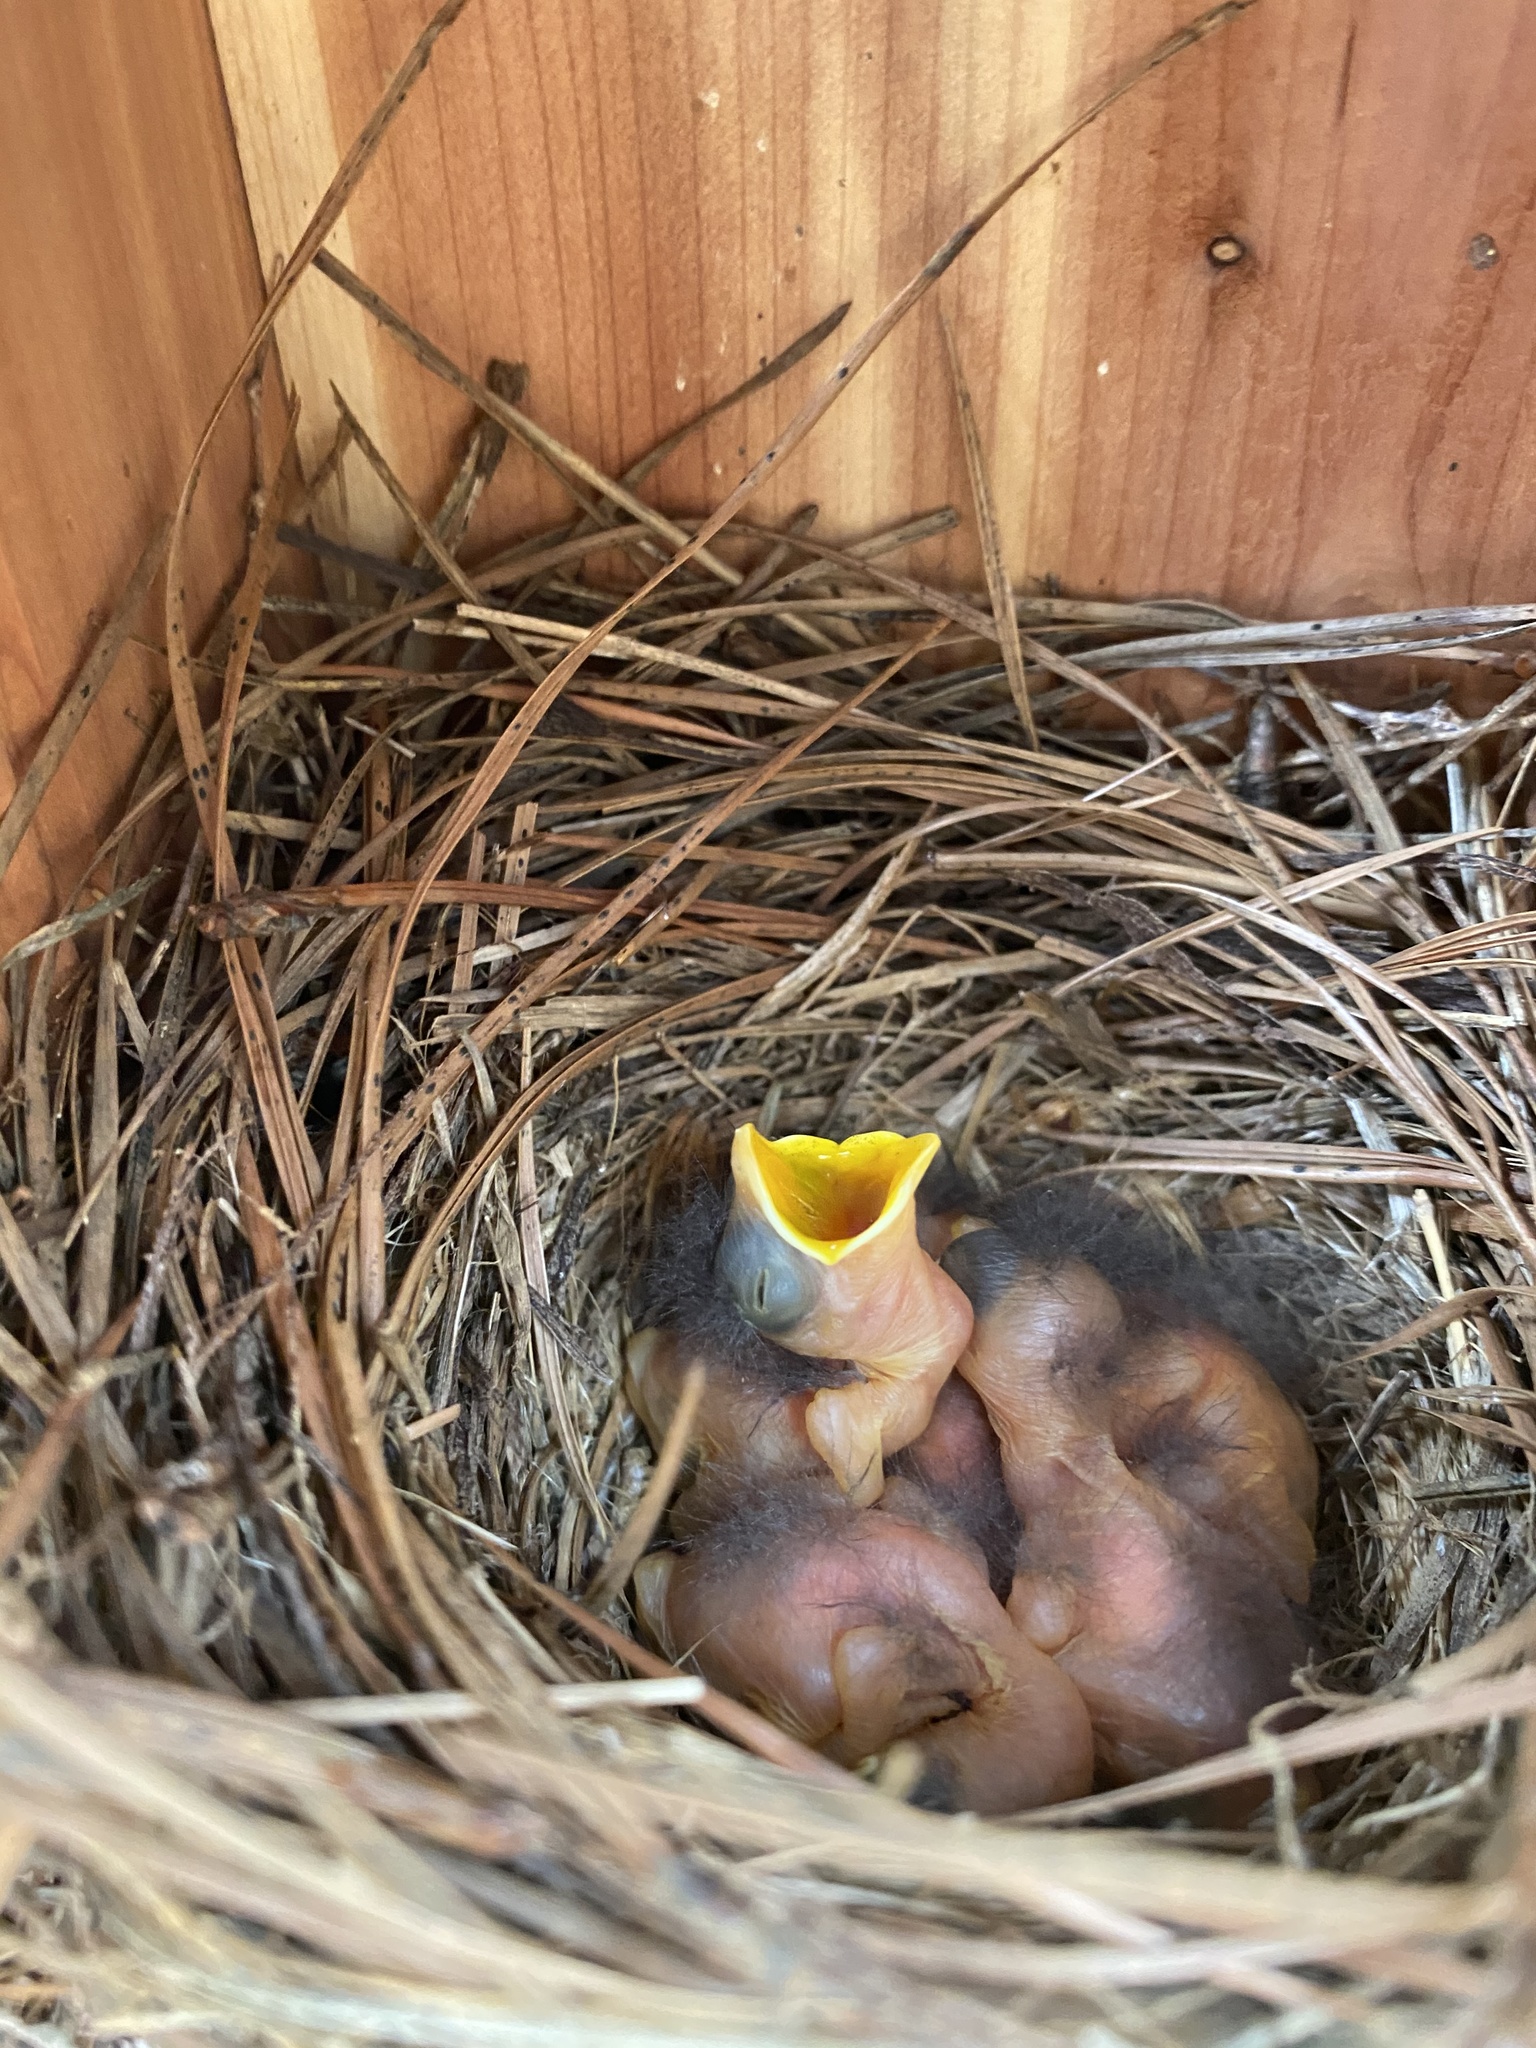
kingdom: Animalia
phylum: Chordata
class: Aves
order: Passeriformes
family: Turdidae
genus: Sialia
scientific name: Sialia sialis
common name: Eastern bluebird
